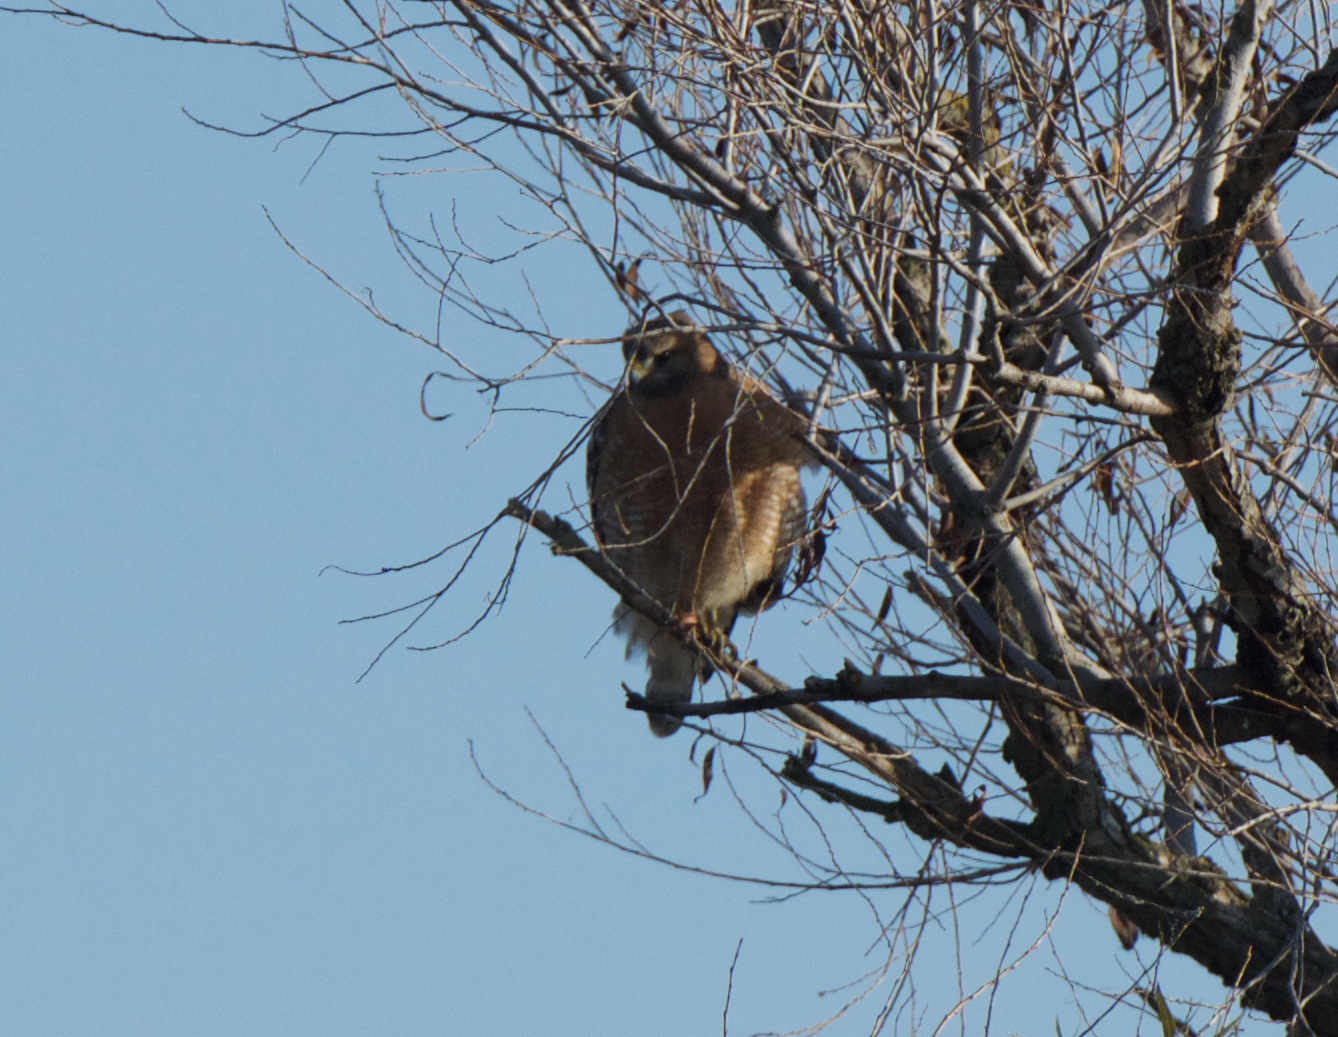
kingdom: Animalia
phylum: Chordata
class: Aves
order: Accipitriformes
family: Accipitridae
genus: Buteo
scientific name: Buteo lineatus
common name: Red-shouldered hawk
